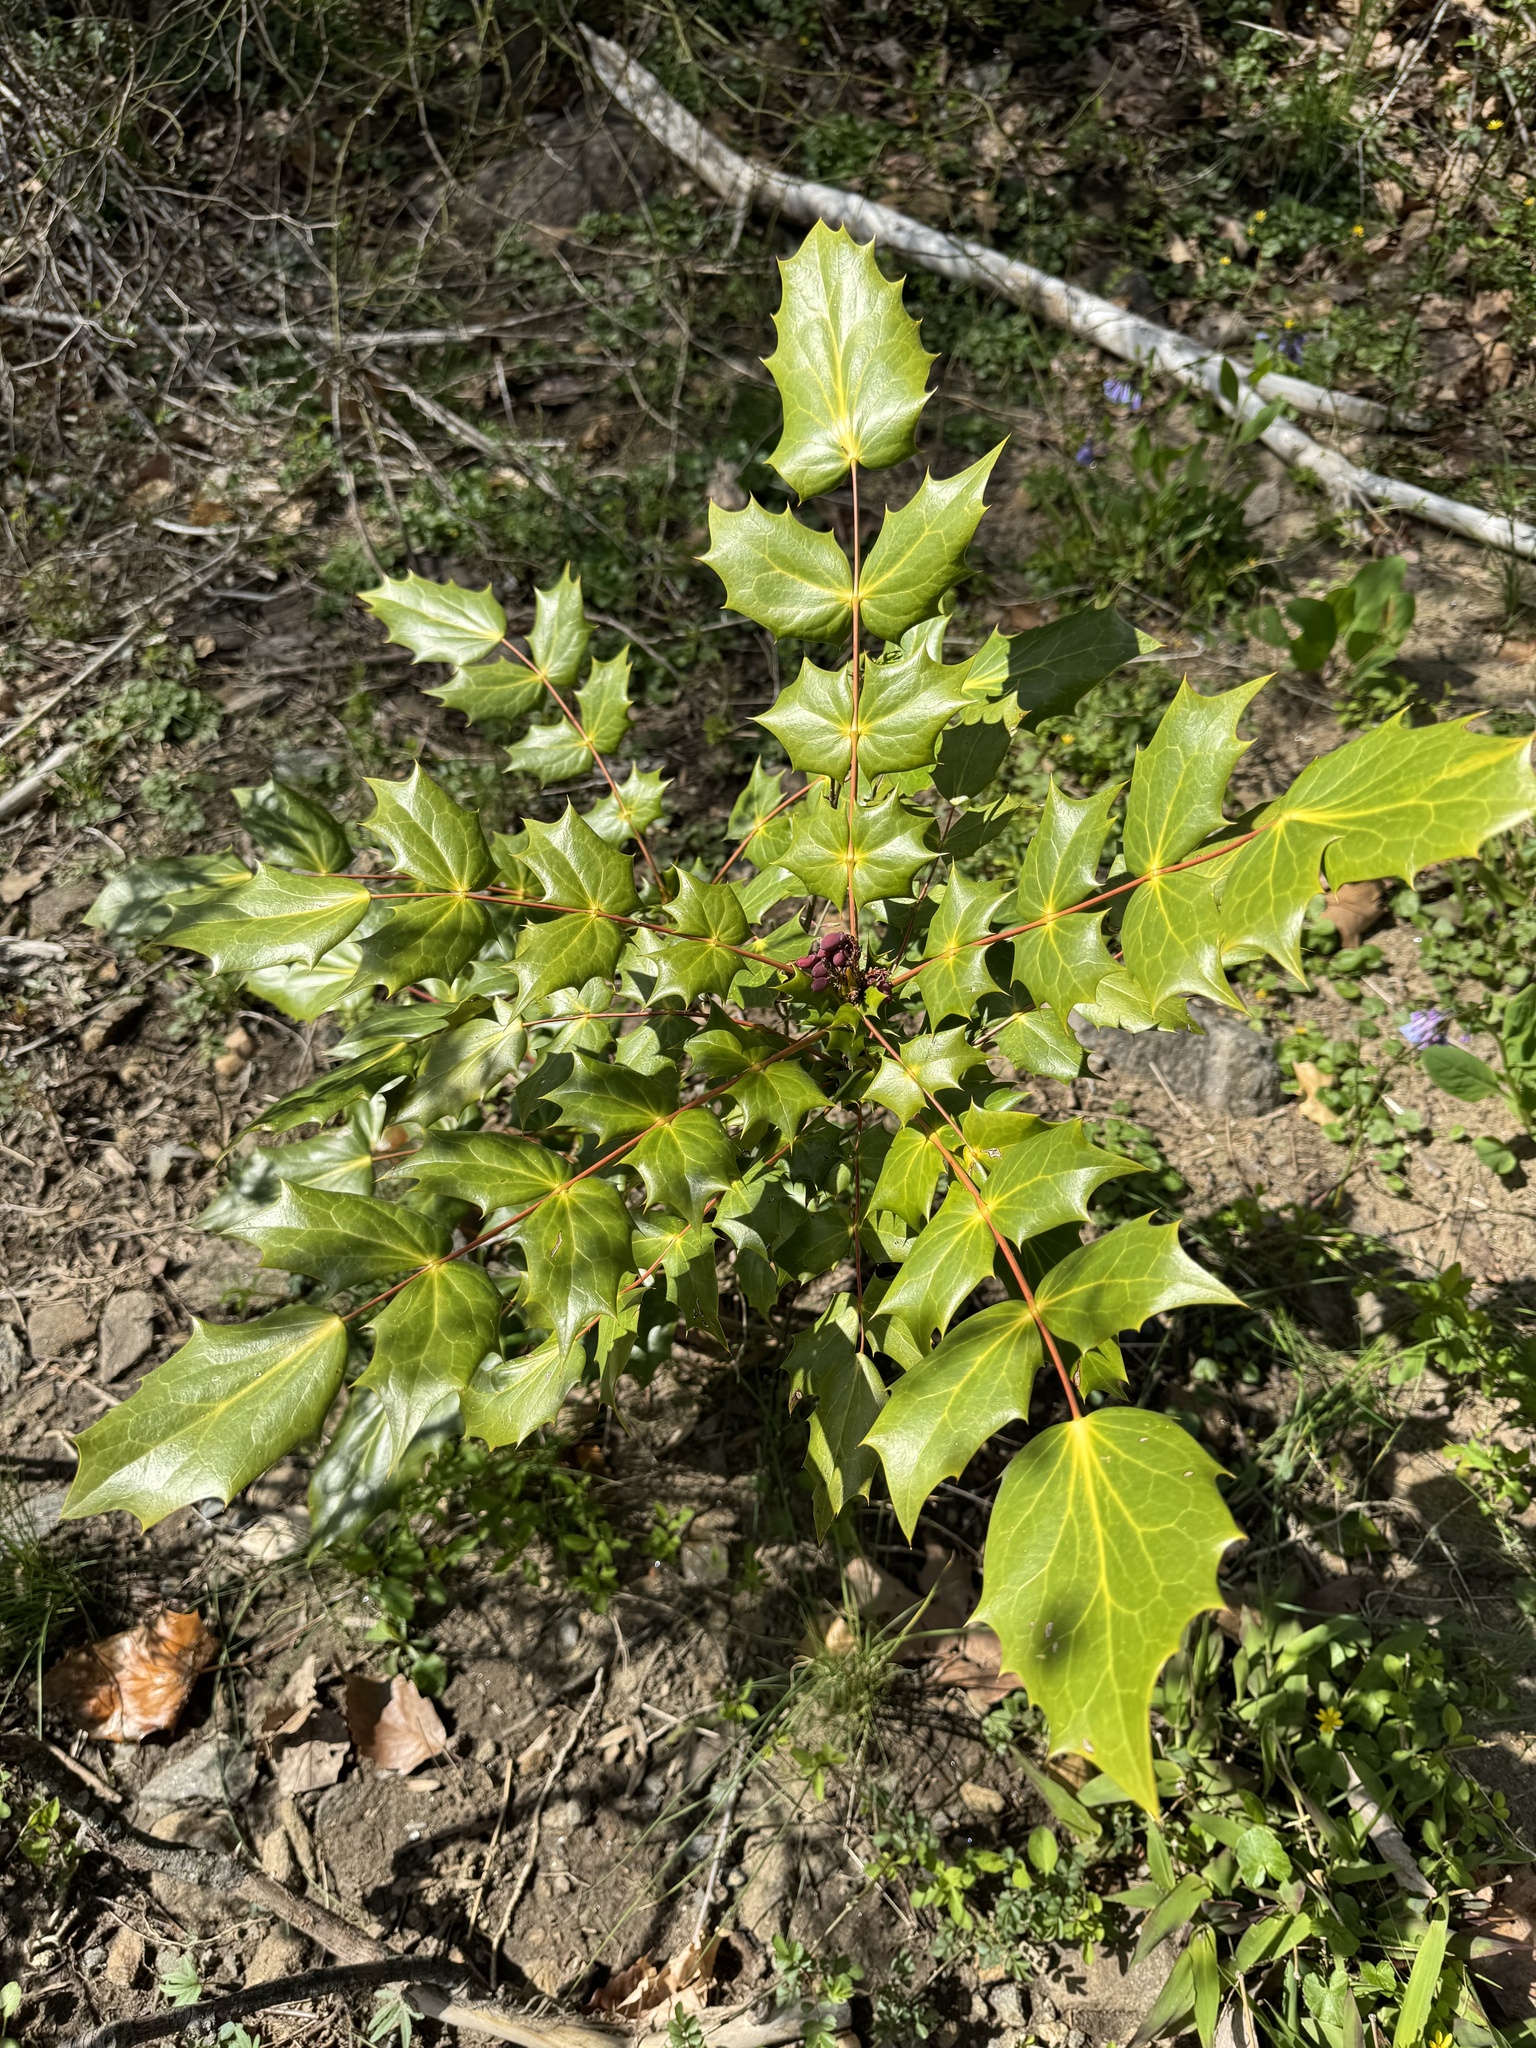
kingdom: Plantae
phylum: Tracheophyta
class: Magnoliopsida
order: Ranunculales
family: Berberidaceae
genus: Mahonia
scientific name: Mahonia bealei
